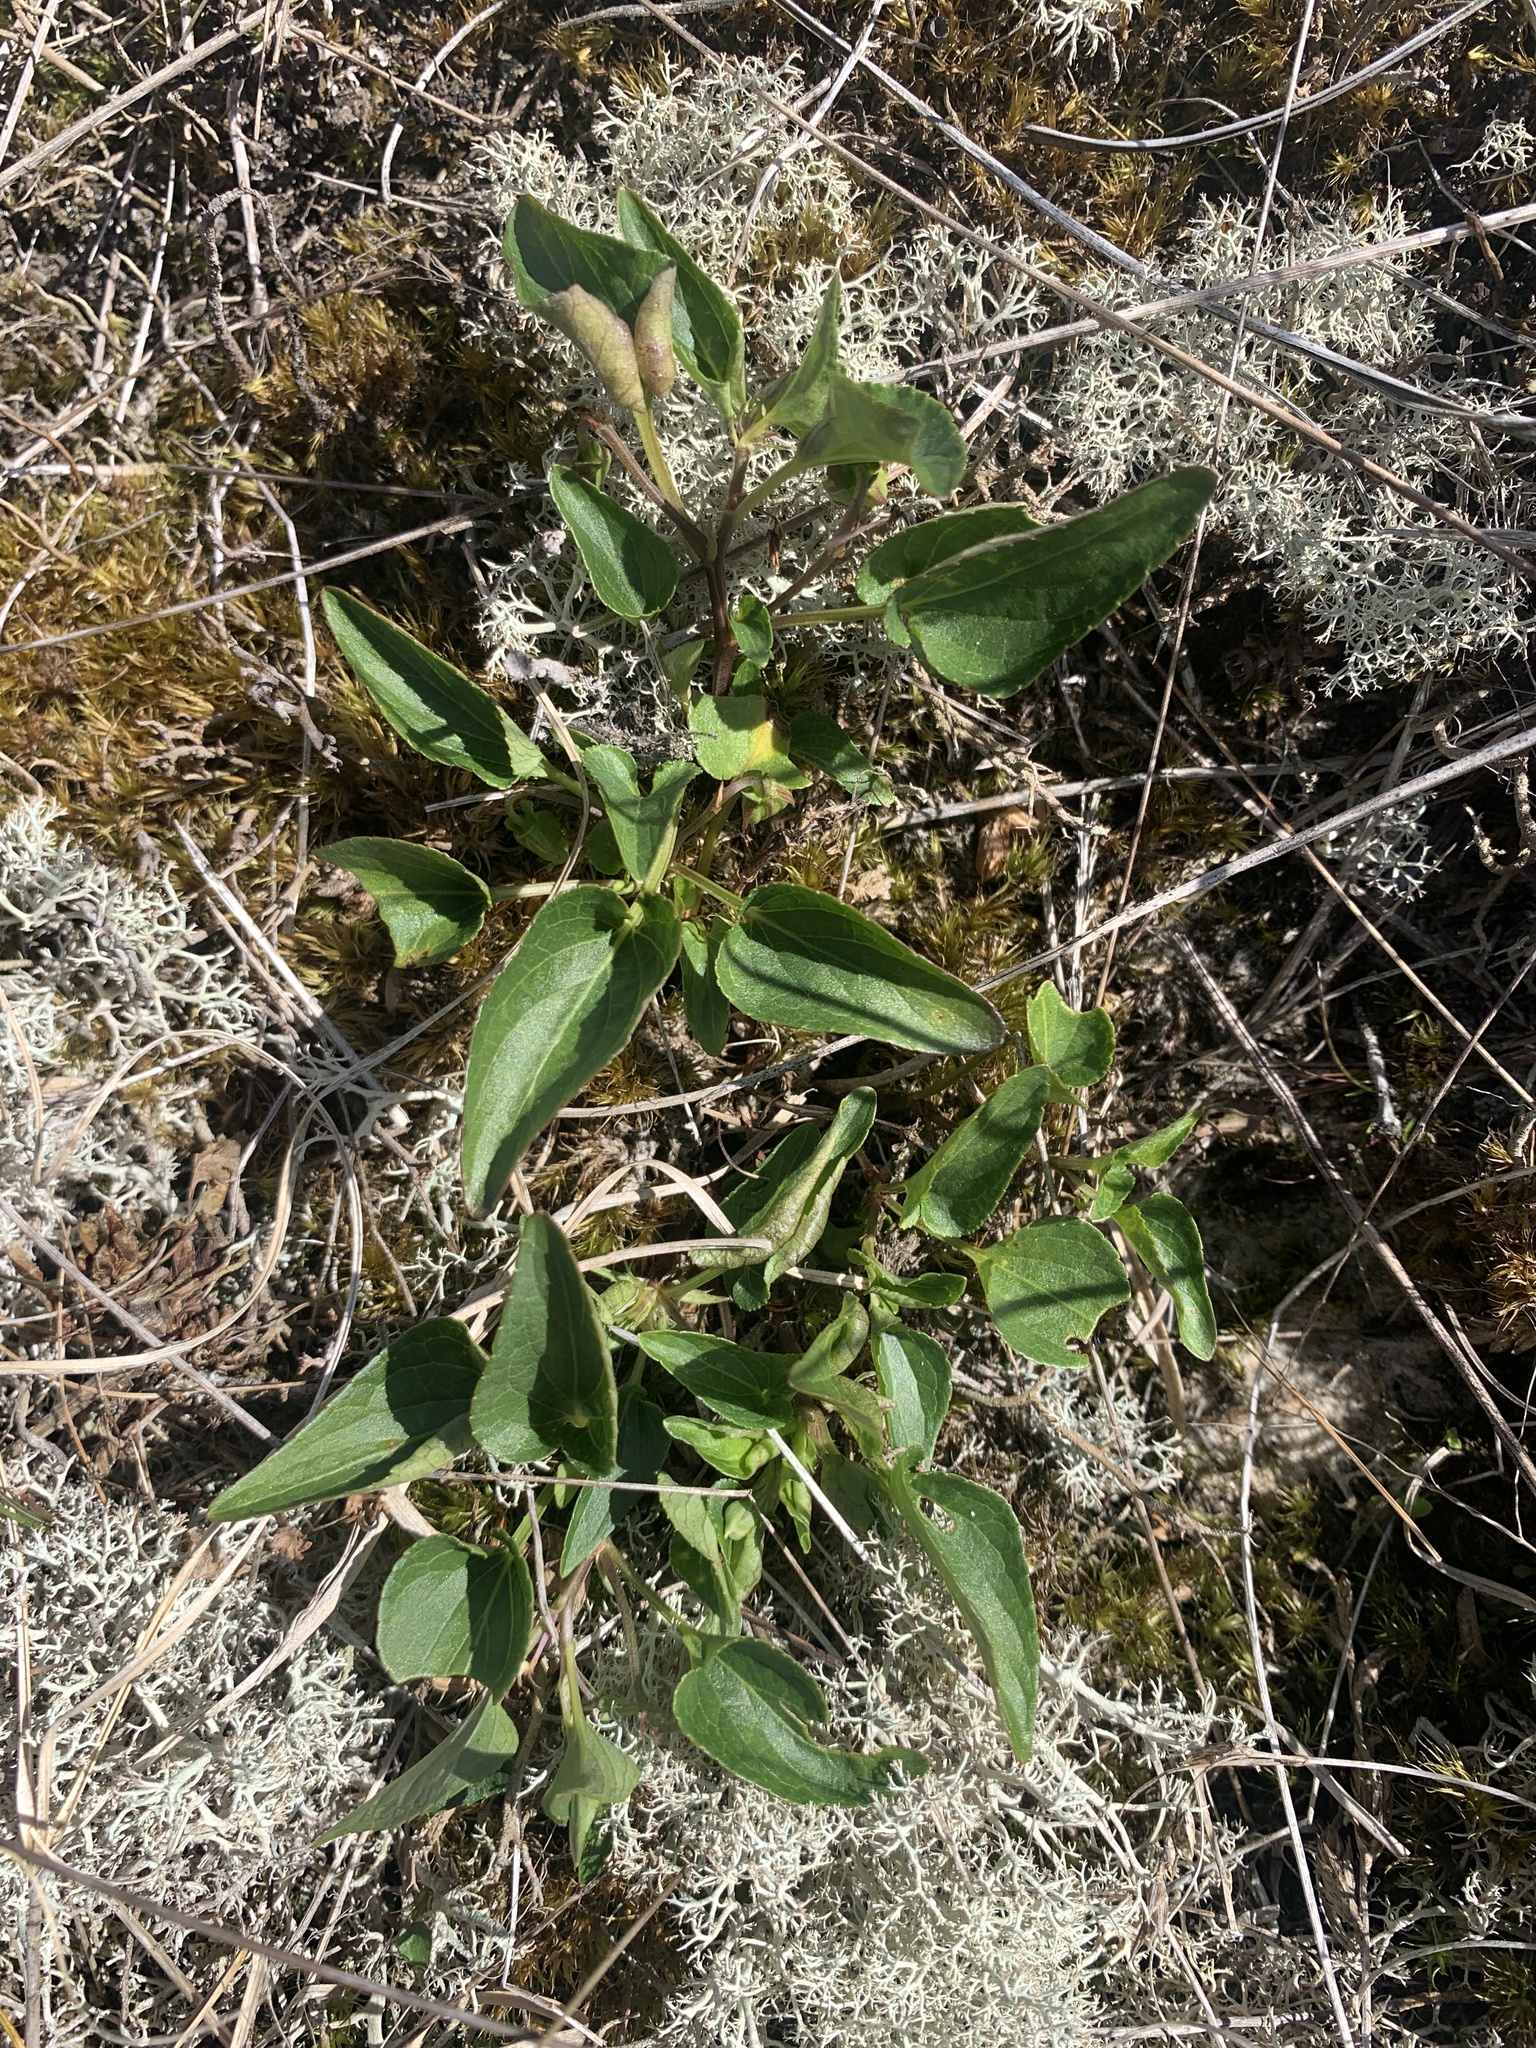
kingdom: Plantae
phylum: Tracheophyta
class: Magnoliopsida
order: Malpighiales
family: Violaceae
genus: Viola
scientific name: Viola canina
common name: Heath dog-violet
